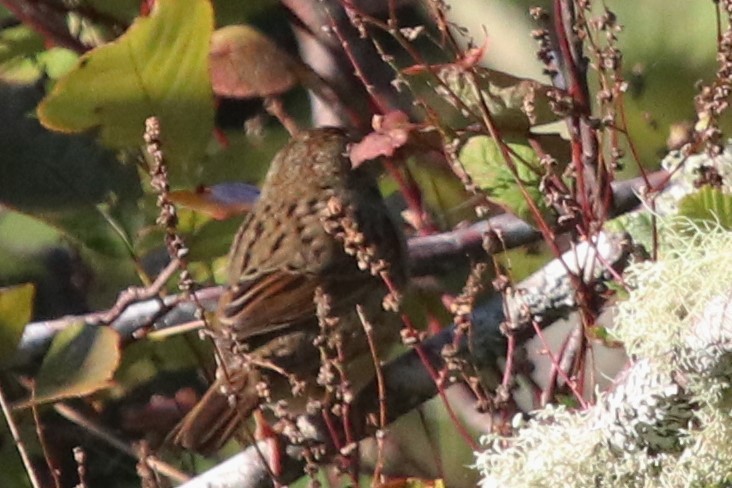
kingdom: Animalia
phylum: Chordata
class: Aves
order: Passeriformes
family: Passerellidae
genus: Melospiza
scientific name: Melospiza lincolnii
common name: Lincoln's sparrow
